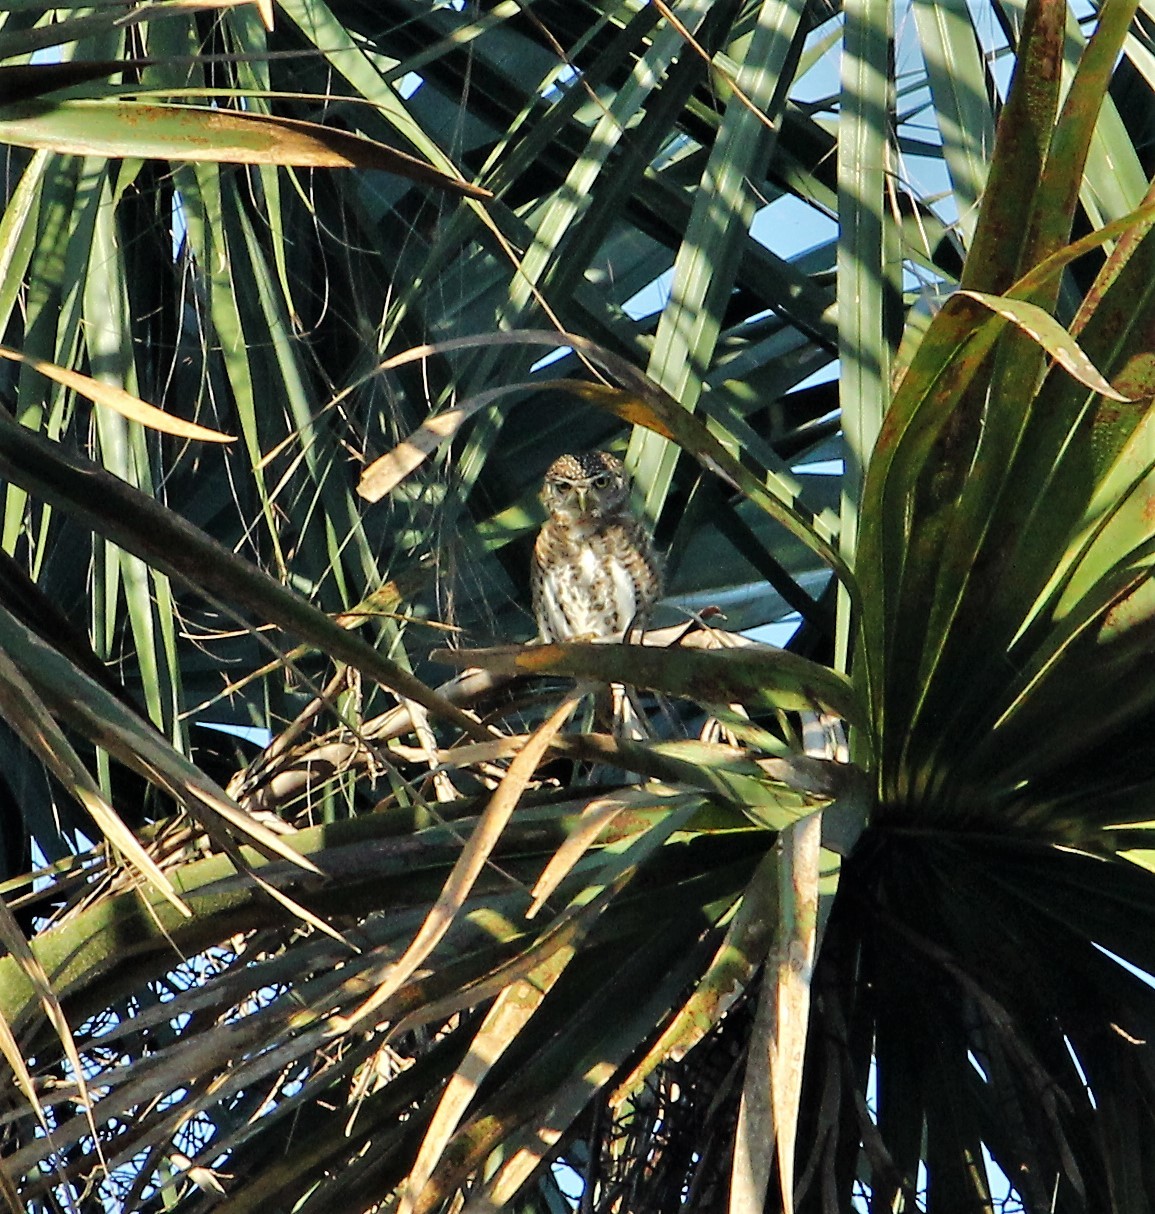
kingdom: Animalia
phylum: Chordata
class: Aves
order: Strigiformes
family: Strigidae
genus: Glaucidium
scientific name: Glaucidium siju
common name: Cuban pygmy-owl
